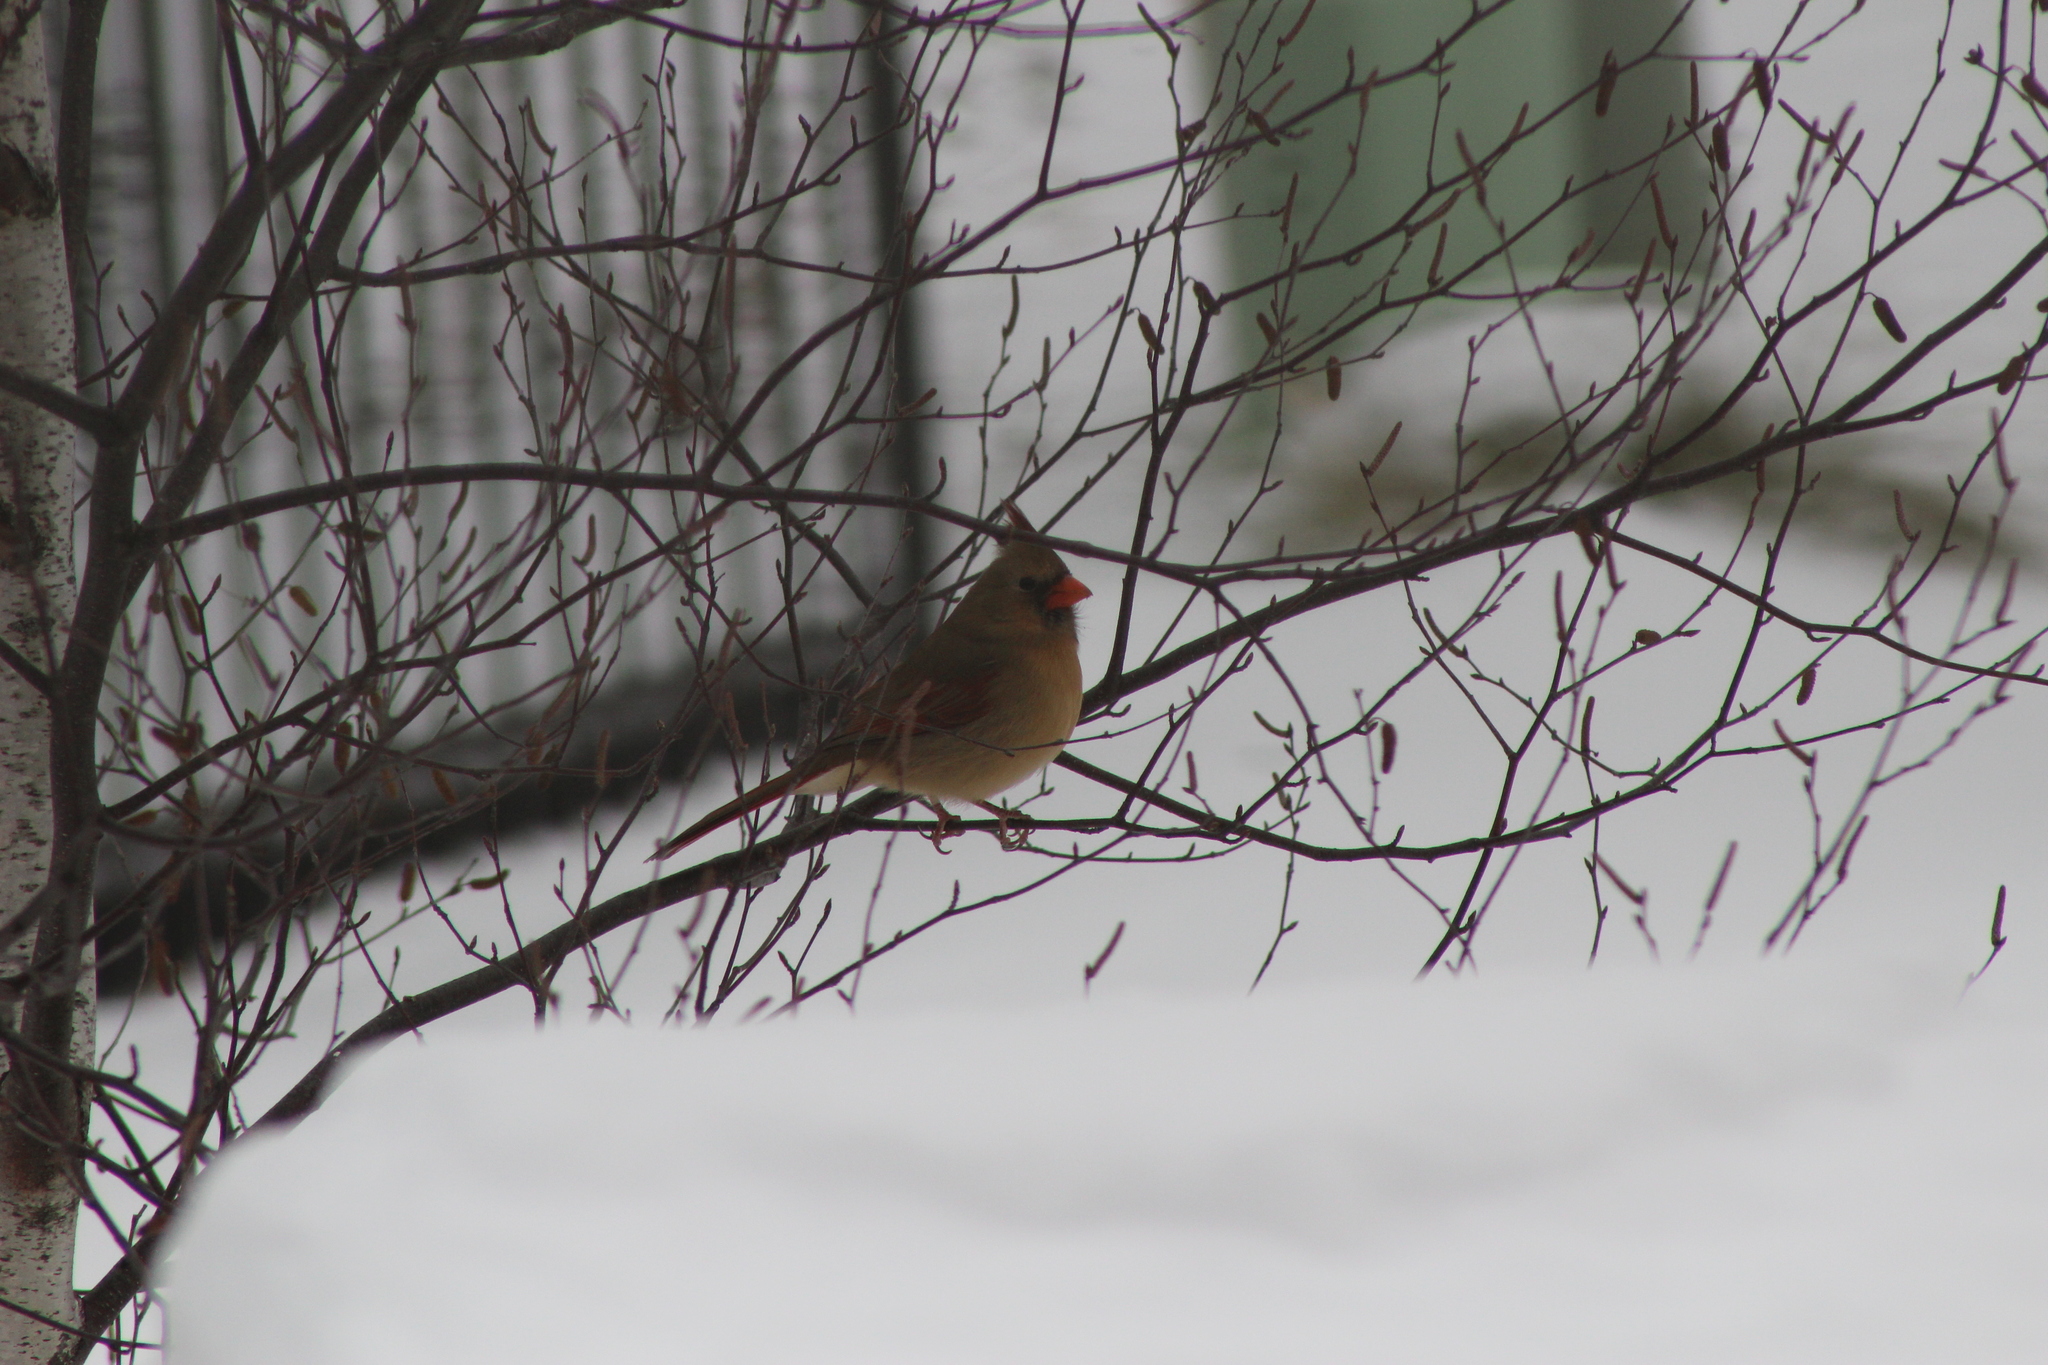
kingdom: Animalia
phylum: Chordata
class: Aves
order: Passeriformes
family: Cardinalidae
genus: Cardinalis
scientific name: Cardinalis cardinalis
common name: Northern cardinal
